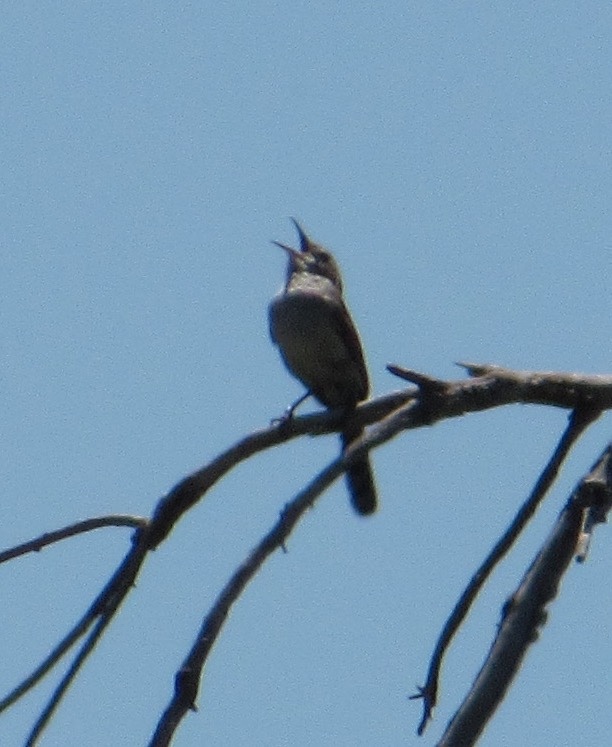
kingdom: Animalia
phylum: Chordata
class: Aves
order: Passeriformes
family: Troglodytidae
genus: Thryomanes
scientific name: Thryomanes bewickii
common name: Bewick's wren
